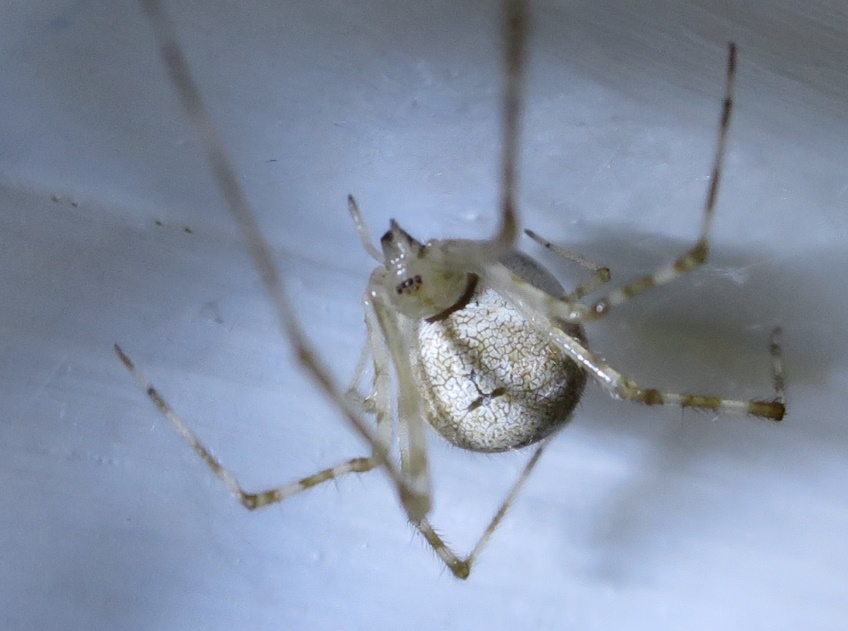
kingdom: Animalia
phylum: Arthropoda
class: Arachnida
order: Araneae
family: Theridiidae
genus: Cryptachaea
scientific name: Cryptachaea gigantipes
